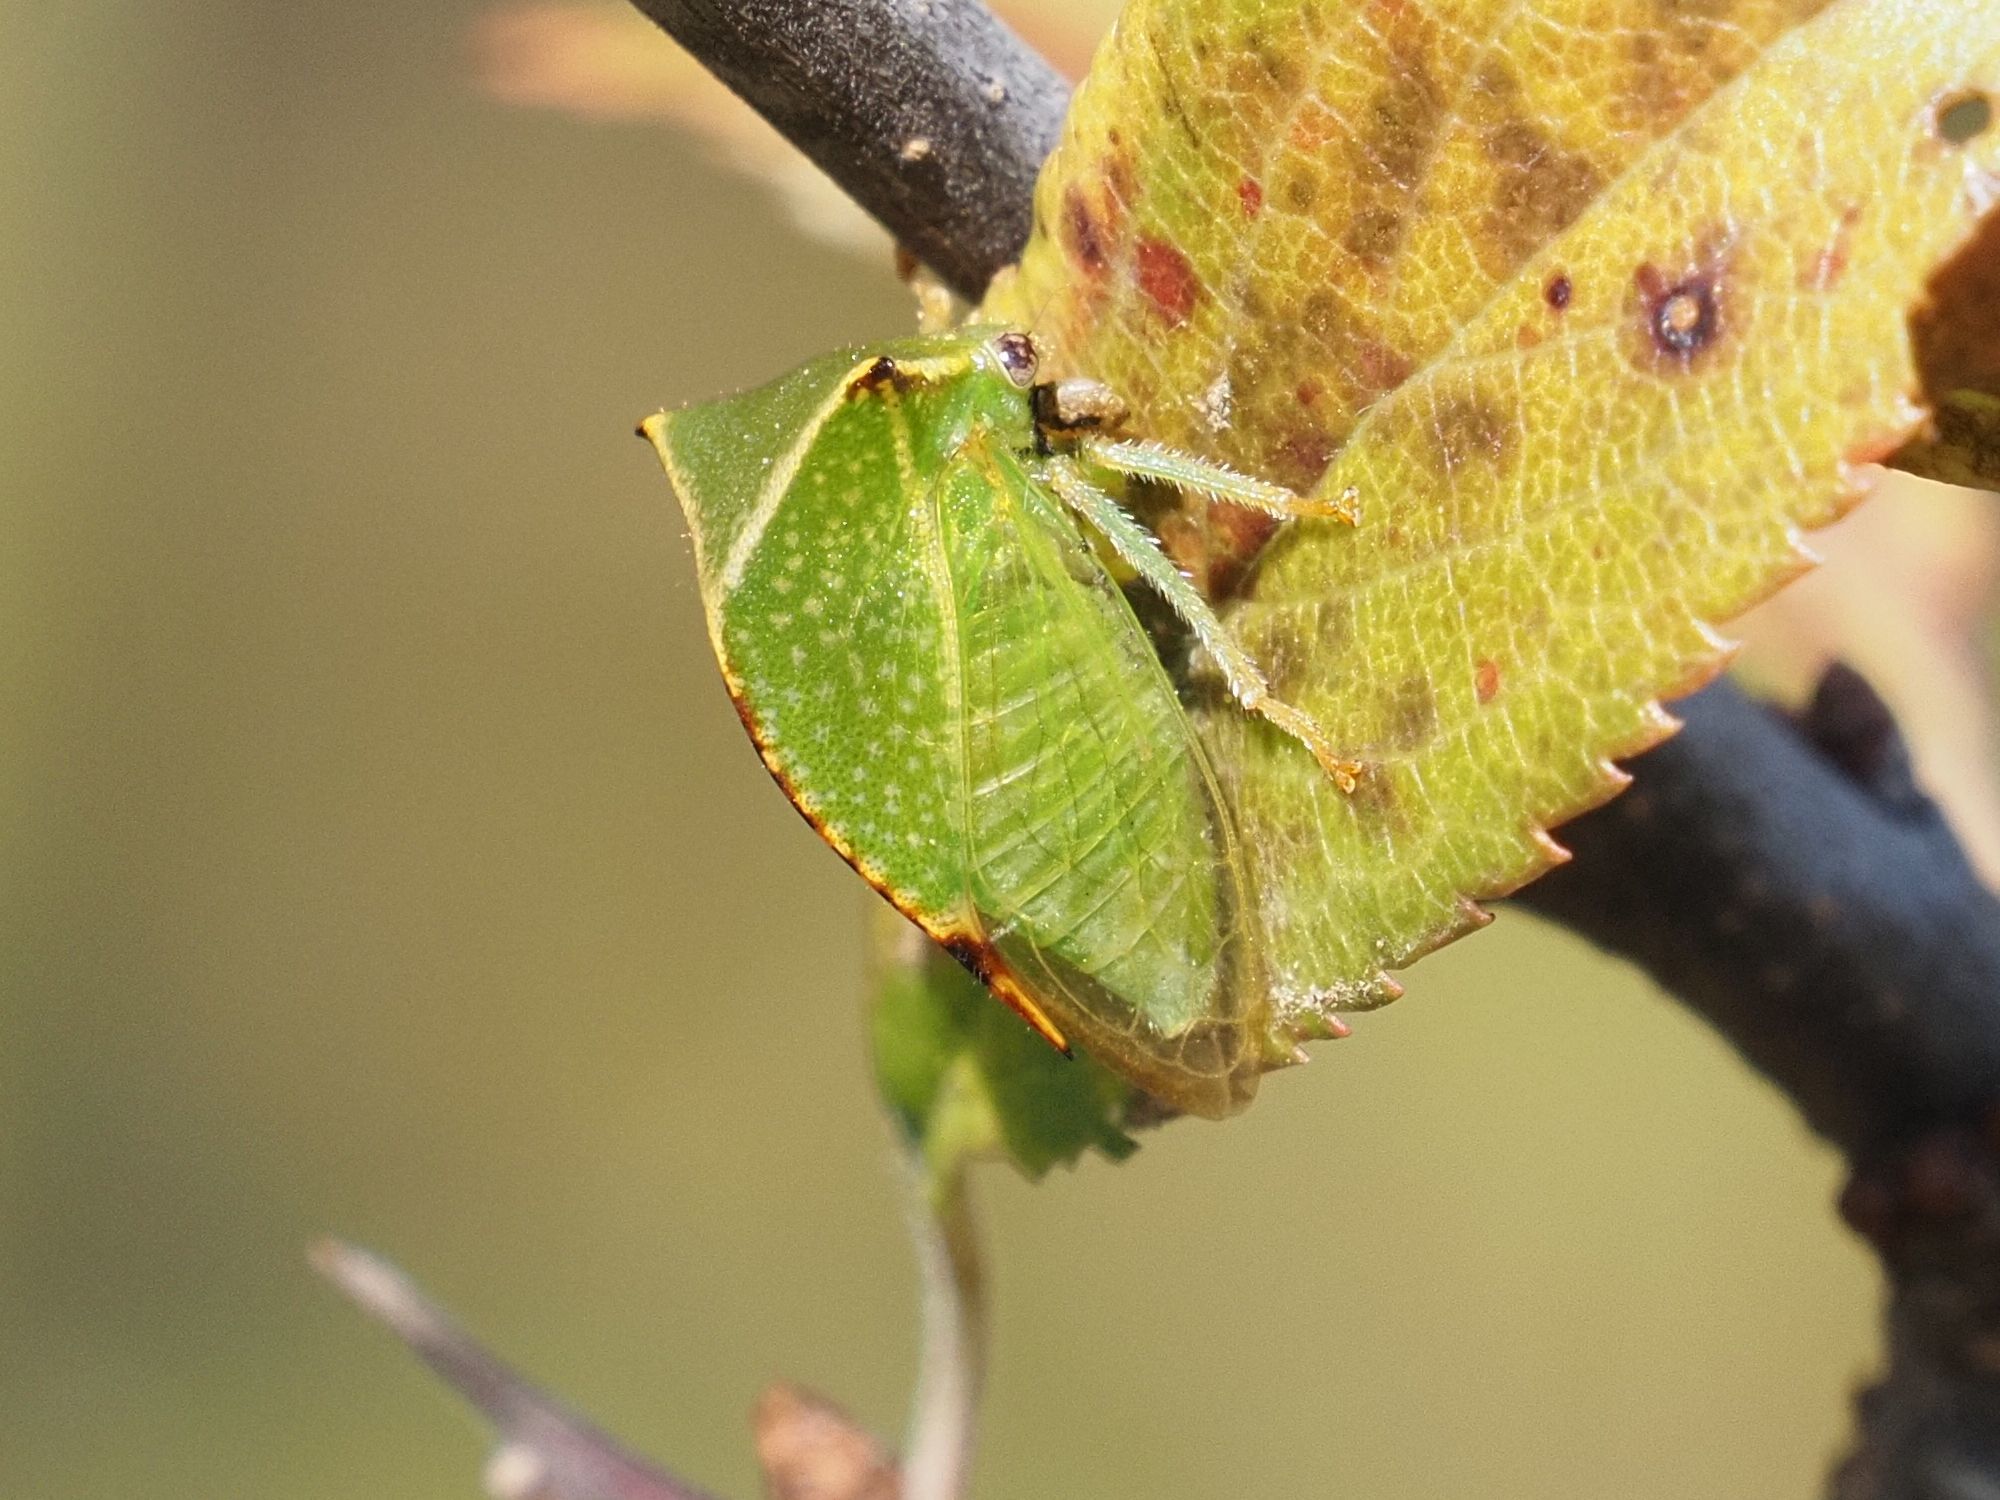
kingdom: Animalia
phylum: Arthropoda
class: Insecta
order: Hemiptera
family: Membracidae
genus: Stictocephala
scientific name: Stictocephala bisonia
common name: American buffalo treehopper
